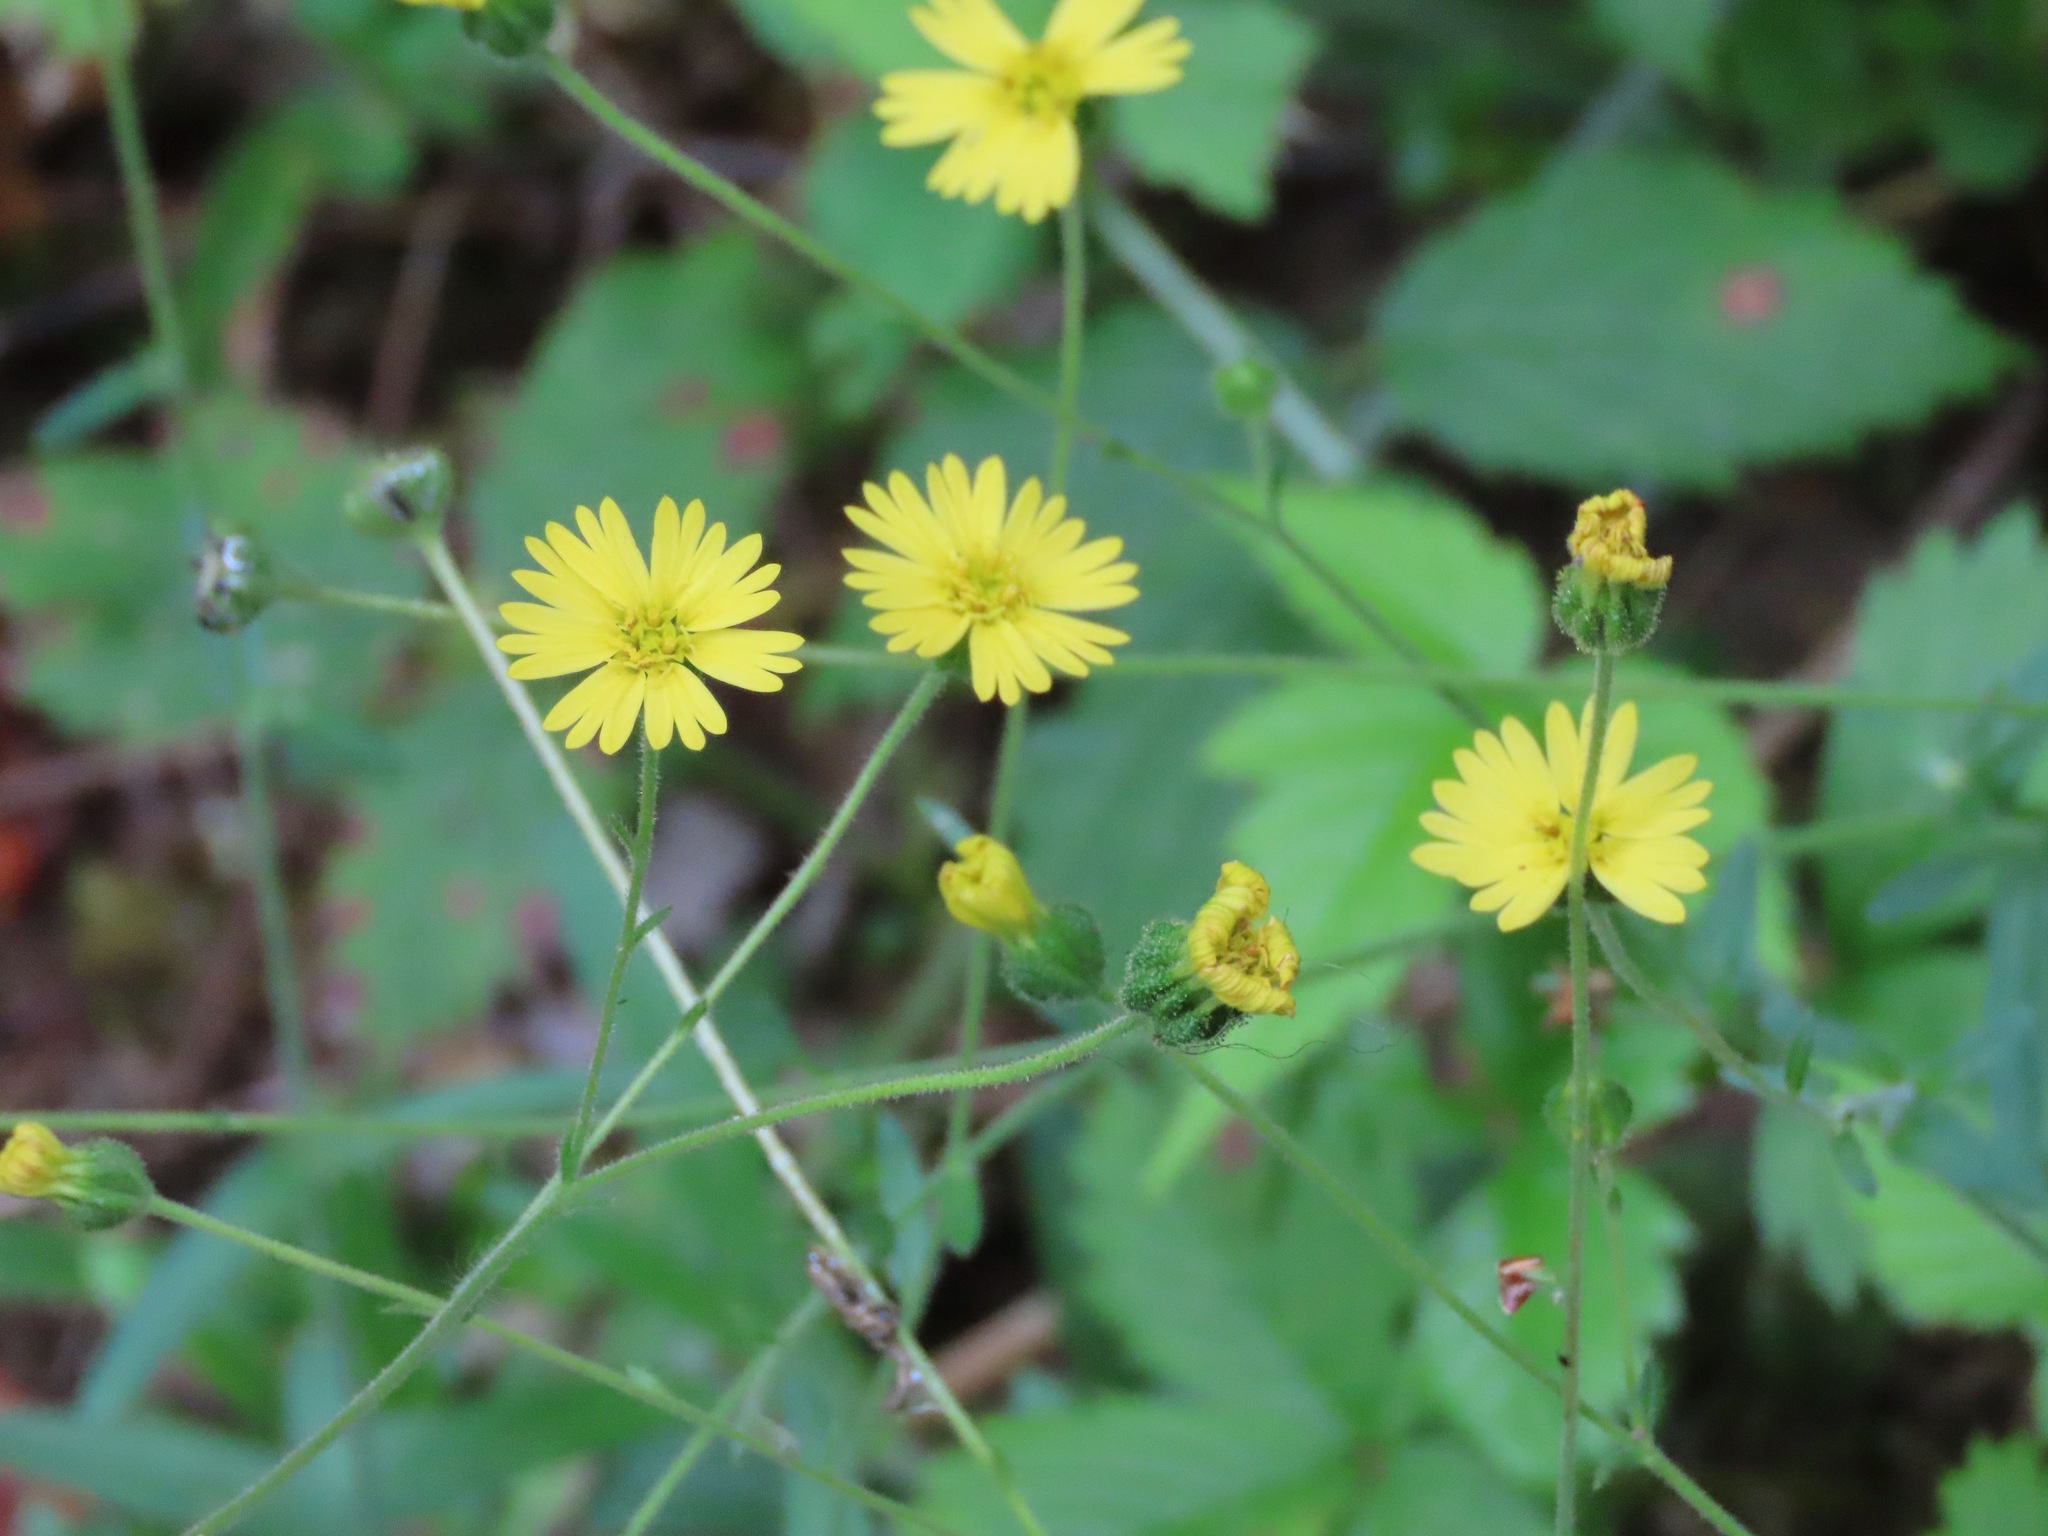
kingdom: Plantae
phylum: Tracheophyta
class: Magnoliopsida
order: Asterales
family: Asteraceae
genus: Anisocarpus
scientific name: Anisocarpus madioides
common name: Woodland madia
